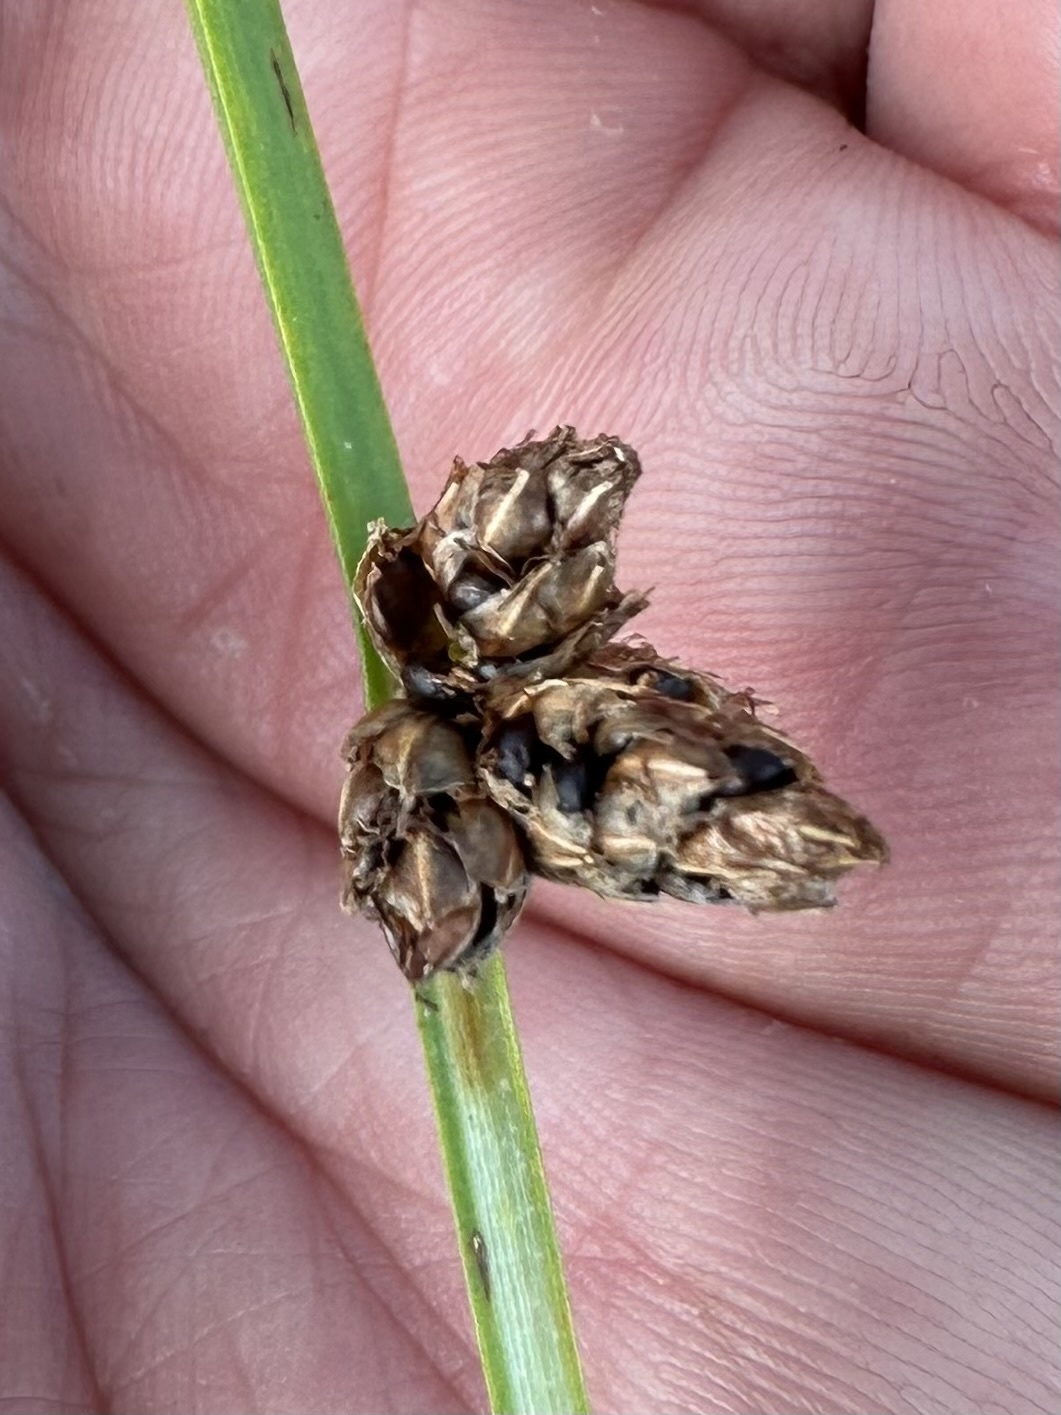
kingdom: Plantae
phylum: Tracheophyta
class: Liliopsida
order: Poales
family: Cyperaceae
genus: Schoenoplectus
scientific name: Schoenoplectus pungens
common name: Sharp club-rush
